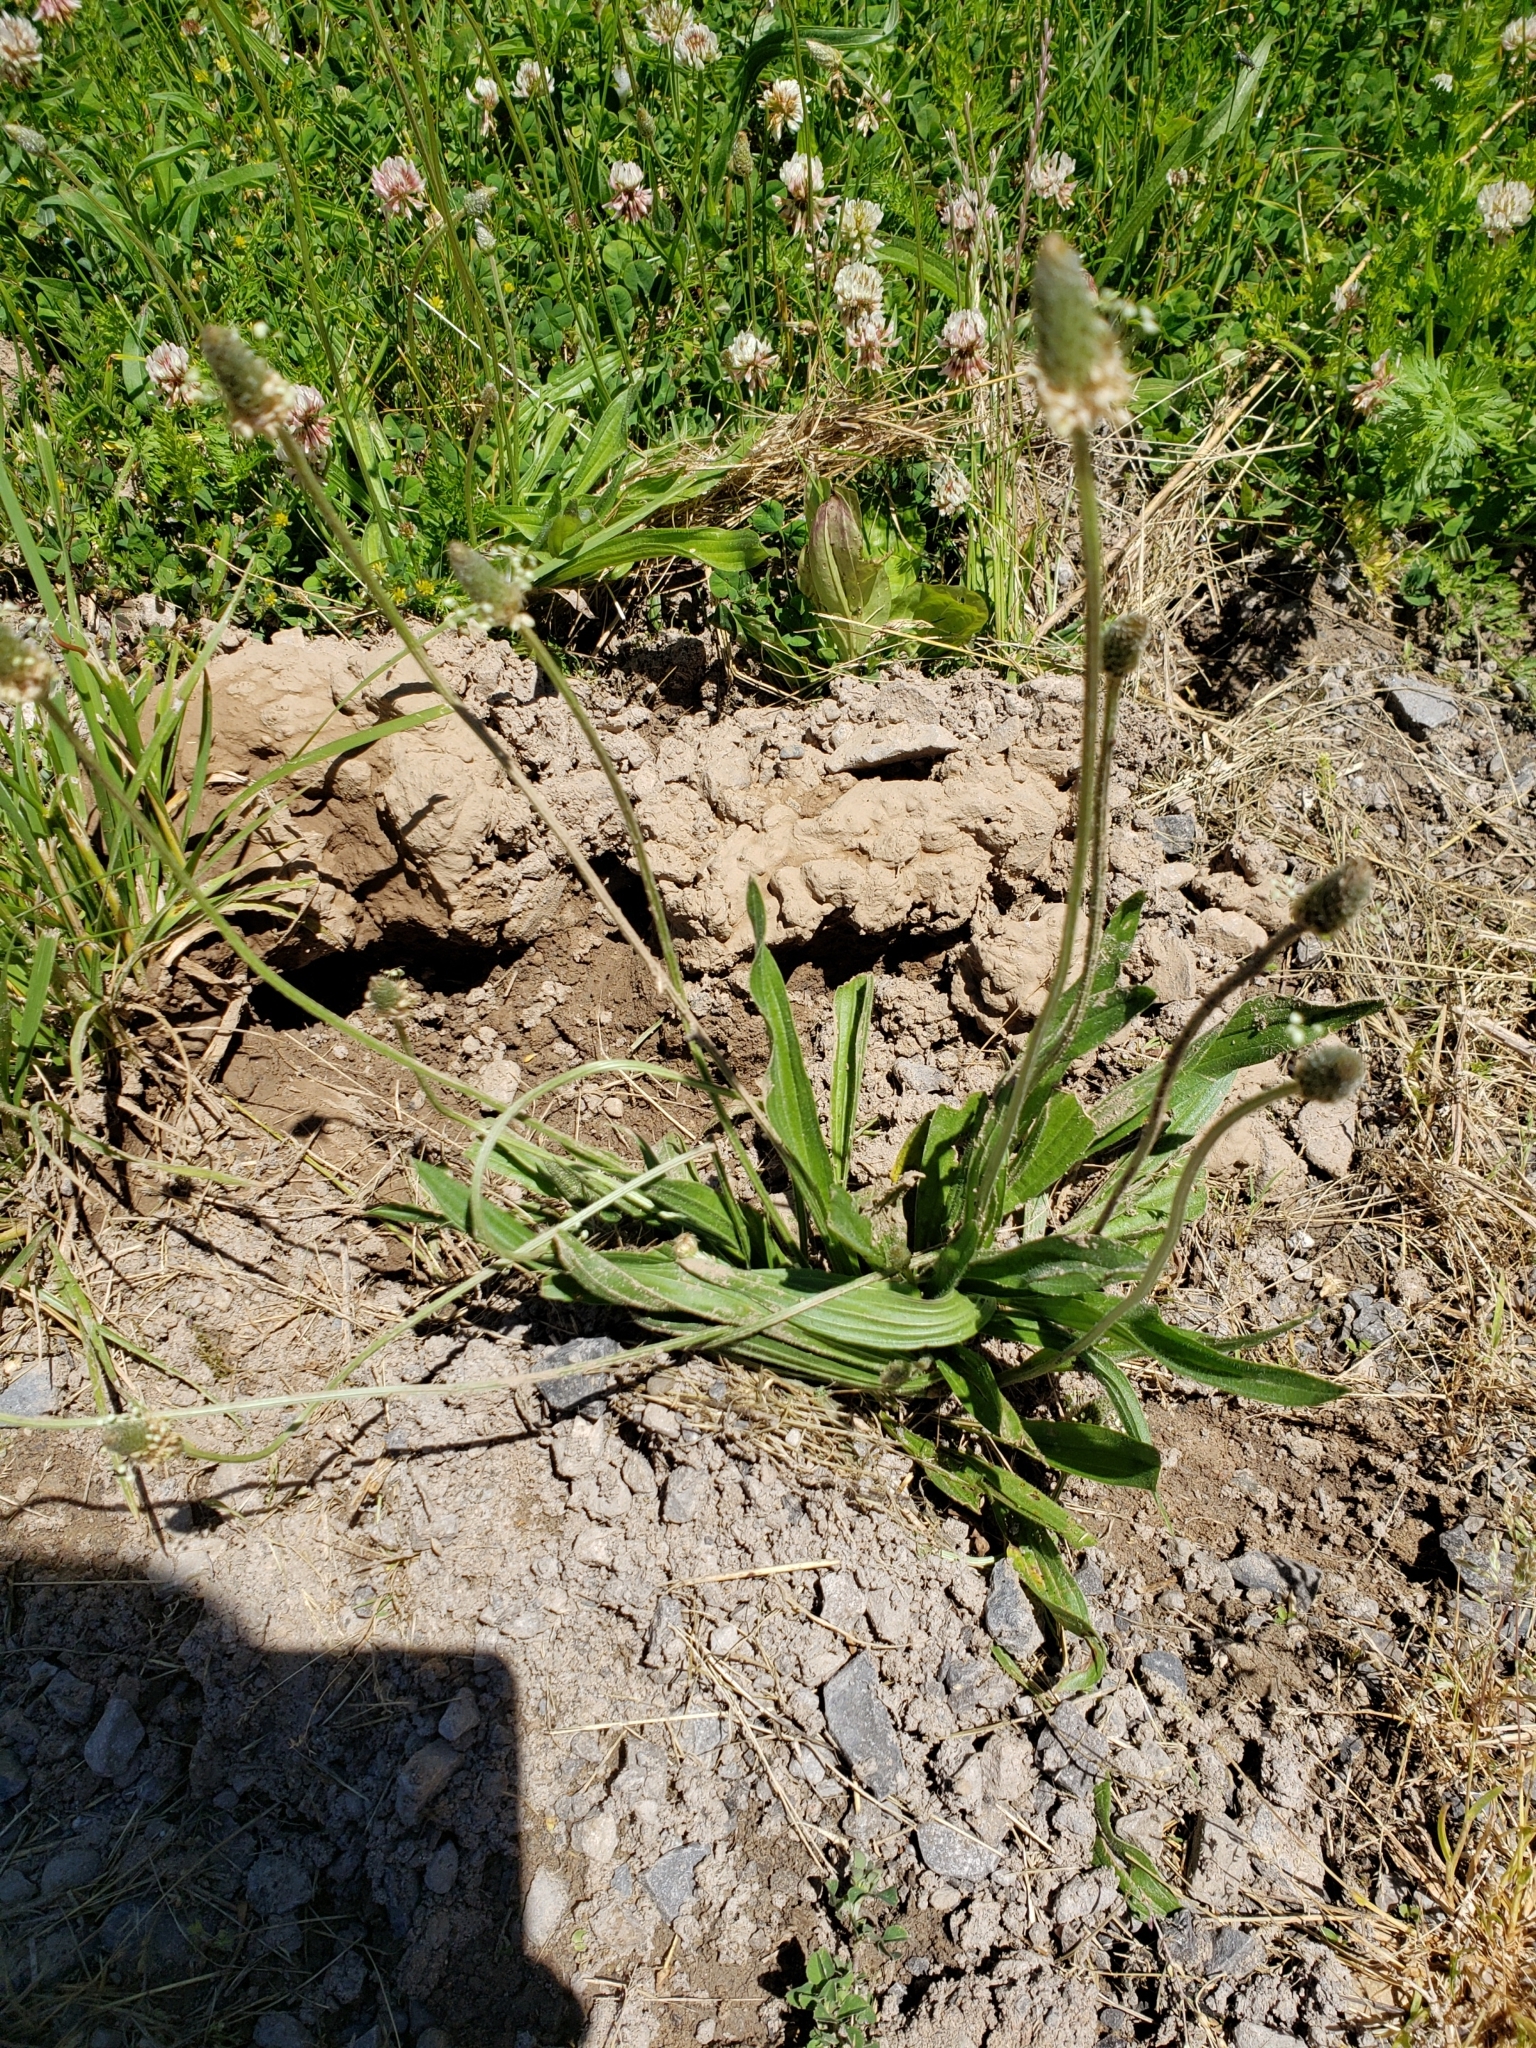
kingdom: Plantae
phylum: Tracheophyta
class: Magnoliopsida
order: Lamiales
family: Plantaginaceae
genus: Plantago
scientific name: Plantago lanceolata
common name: Ribwort plantain
